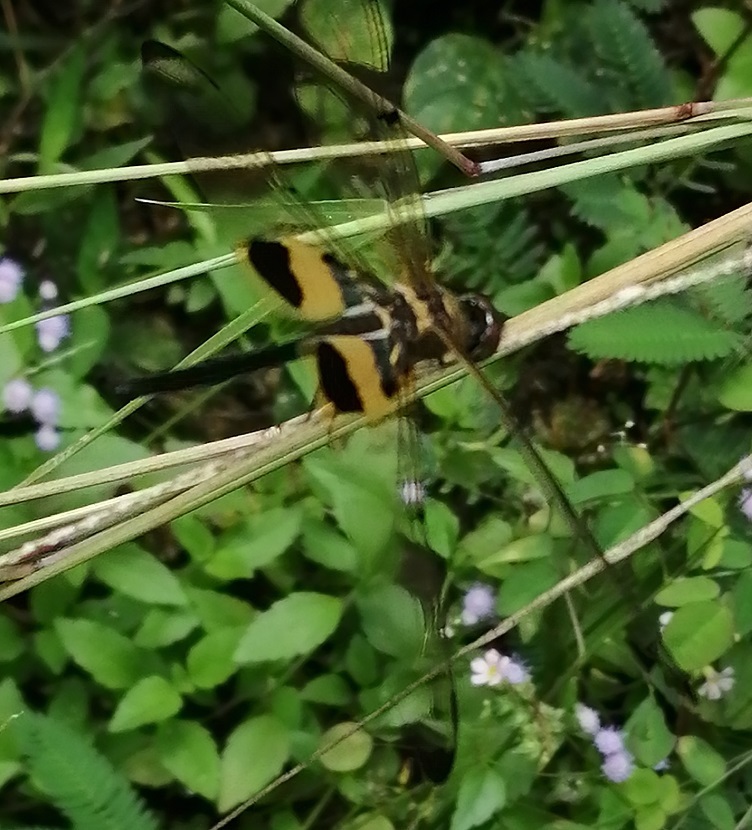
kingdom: Animalia
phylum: Arthropoda
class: Insecta
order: Odonata
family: Libellulidae
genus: Rhyothemis
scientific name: Rhyothemis phyllis
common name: Yellow-barred flutterer
